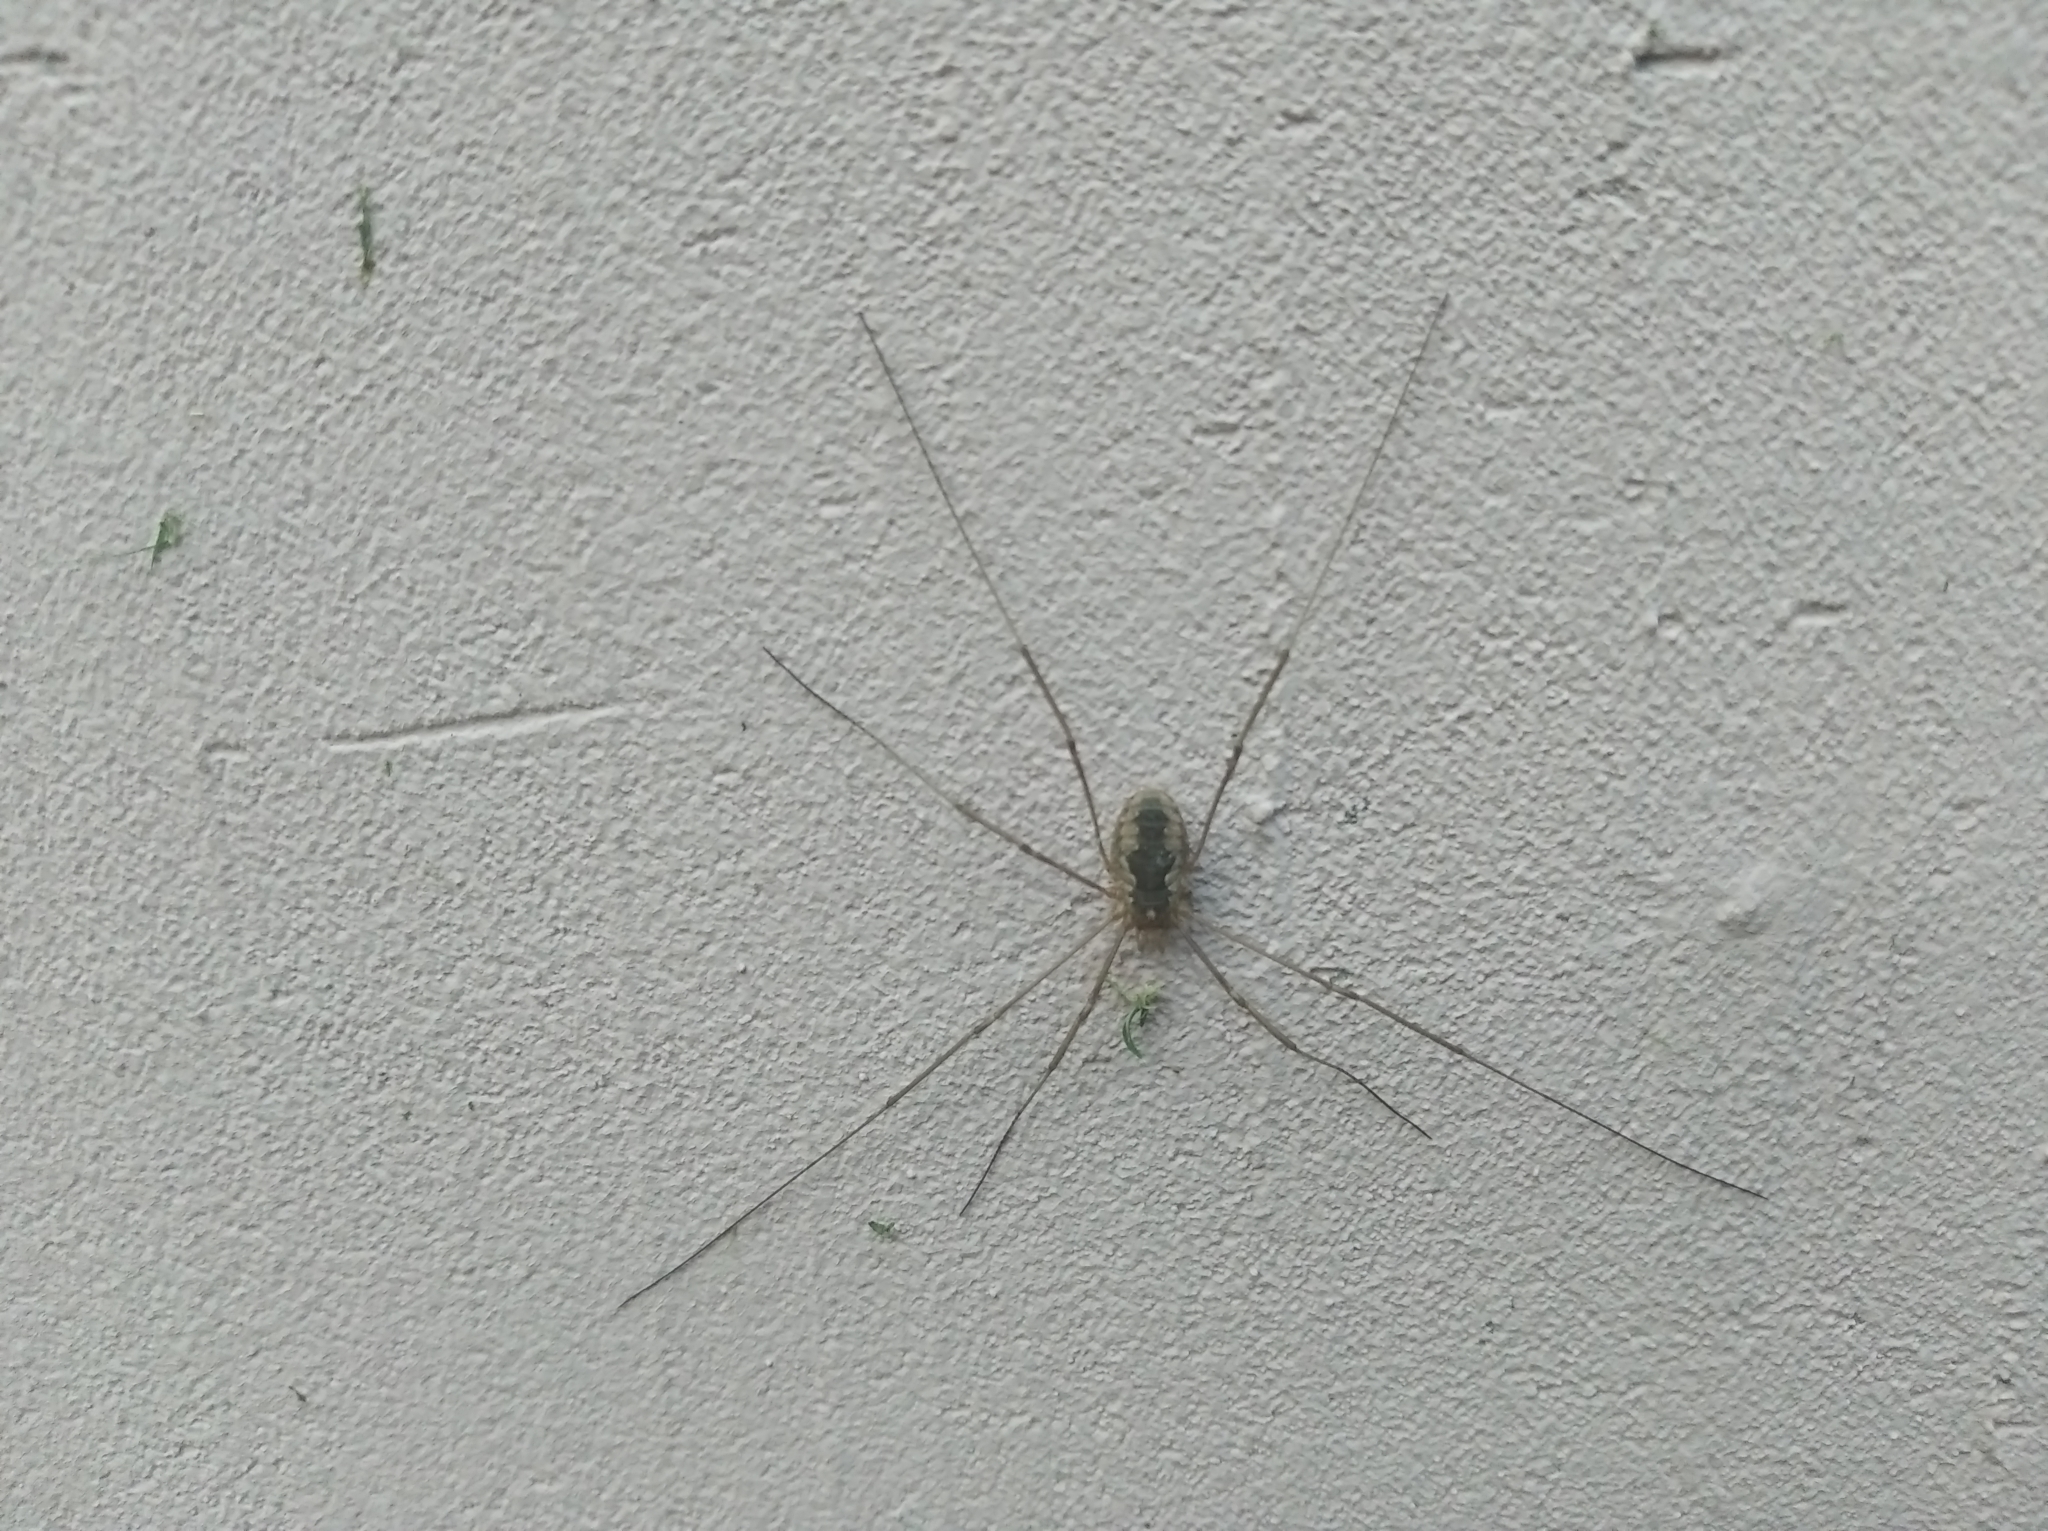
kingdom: Animalia
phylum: Arthropoda
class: Arachnida
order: Opiliones
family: Phalangiidae
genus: Phalangium
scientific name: Phalangium opilio
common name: Daddy longleg
